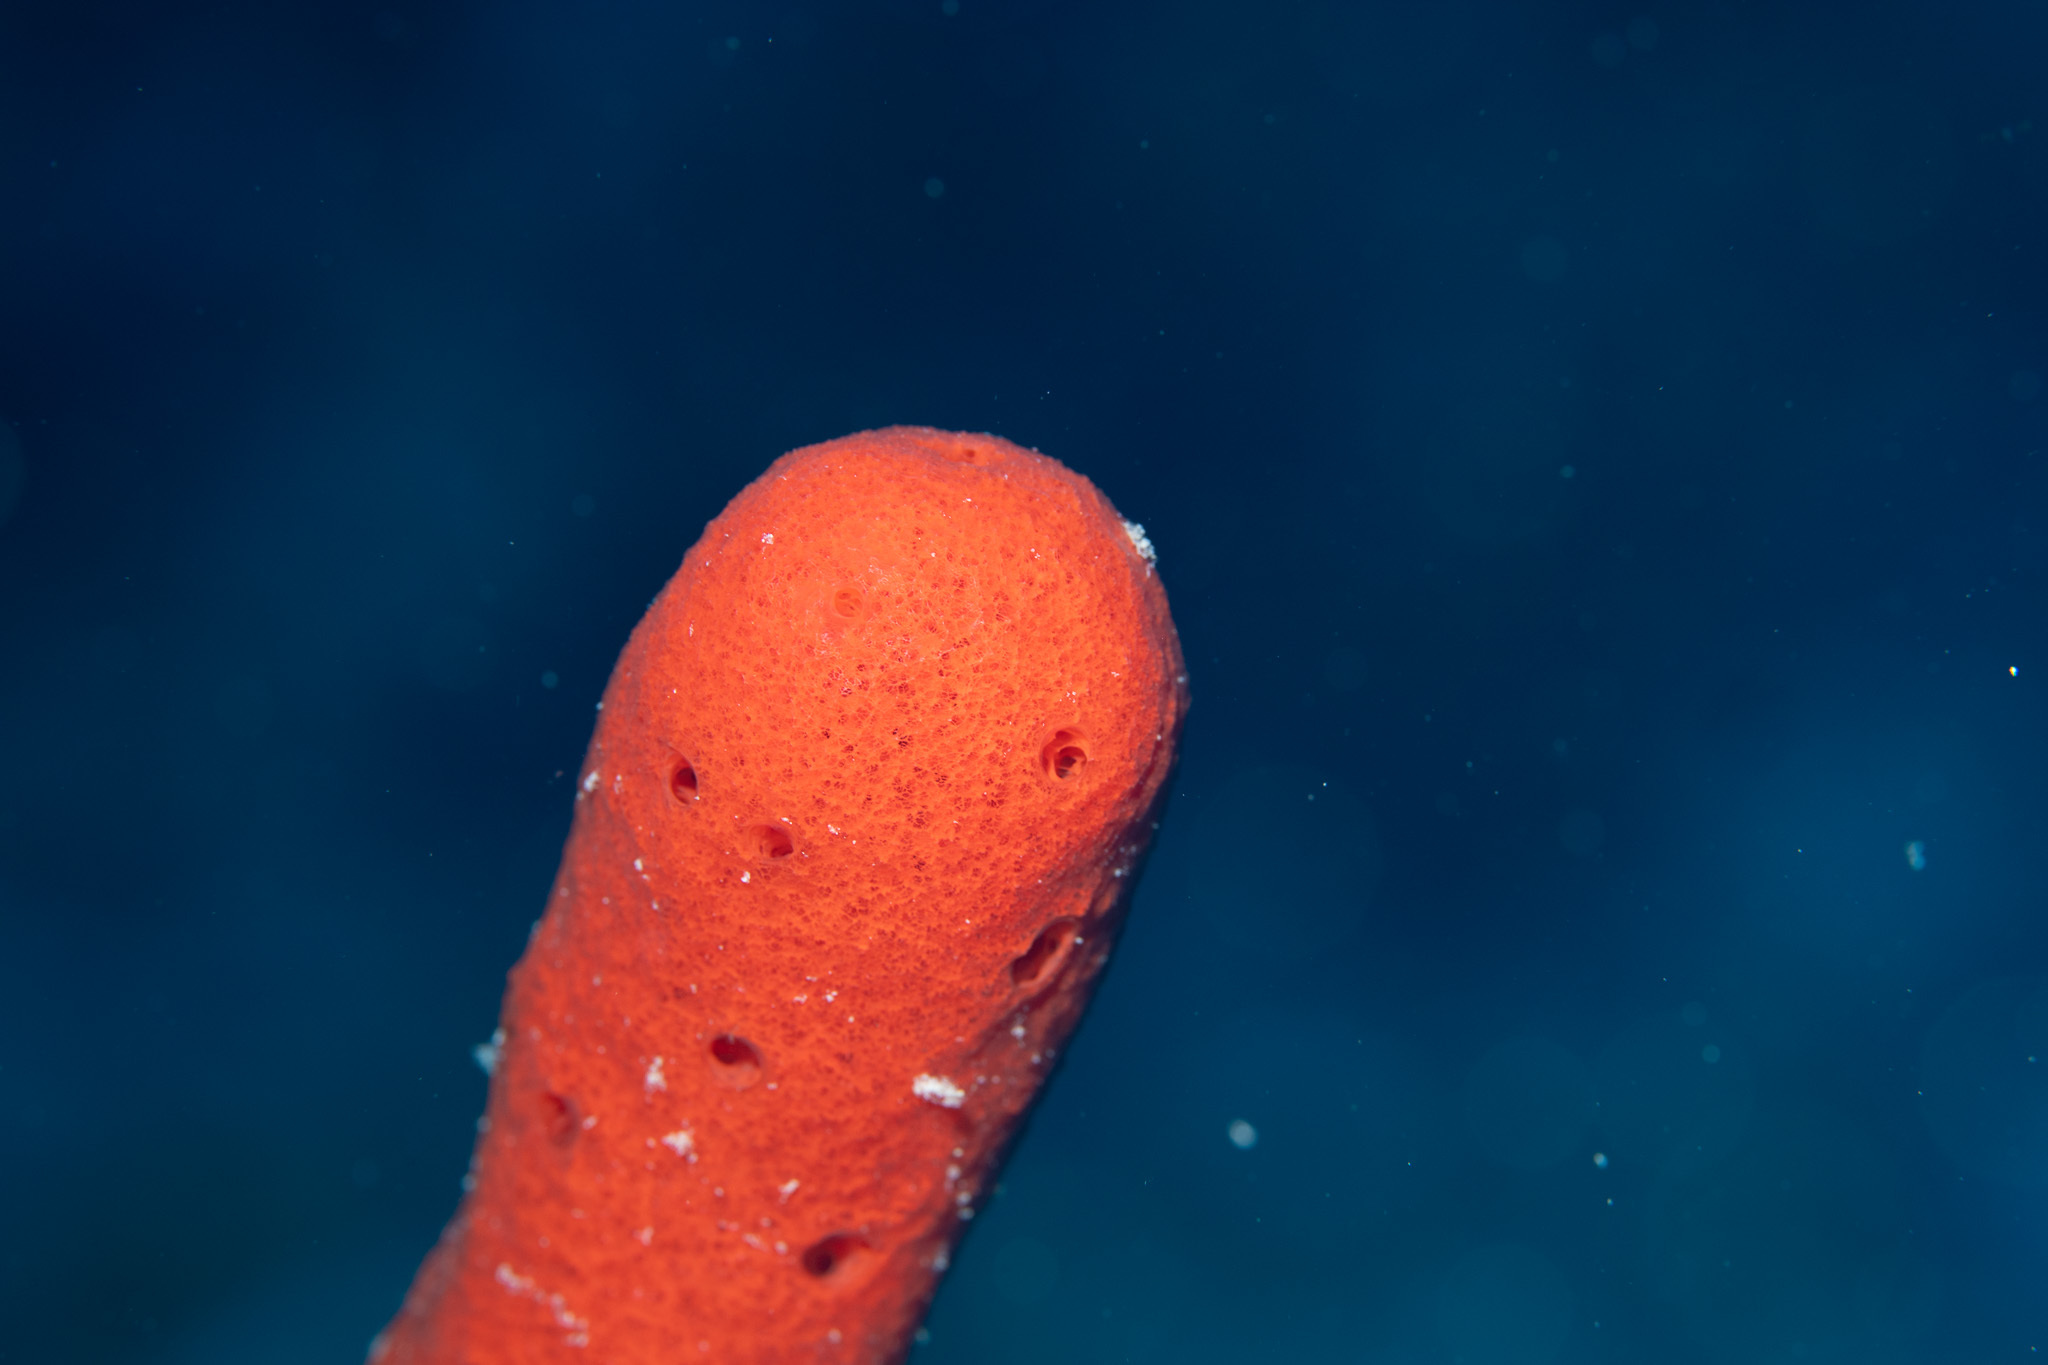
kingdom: Animalia
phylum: Porifera
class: Demospongiae
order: Haplosclerida
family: Niphatidae
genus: Amphimedon
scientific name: Amphimedon compressa
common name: Red sponge
